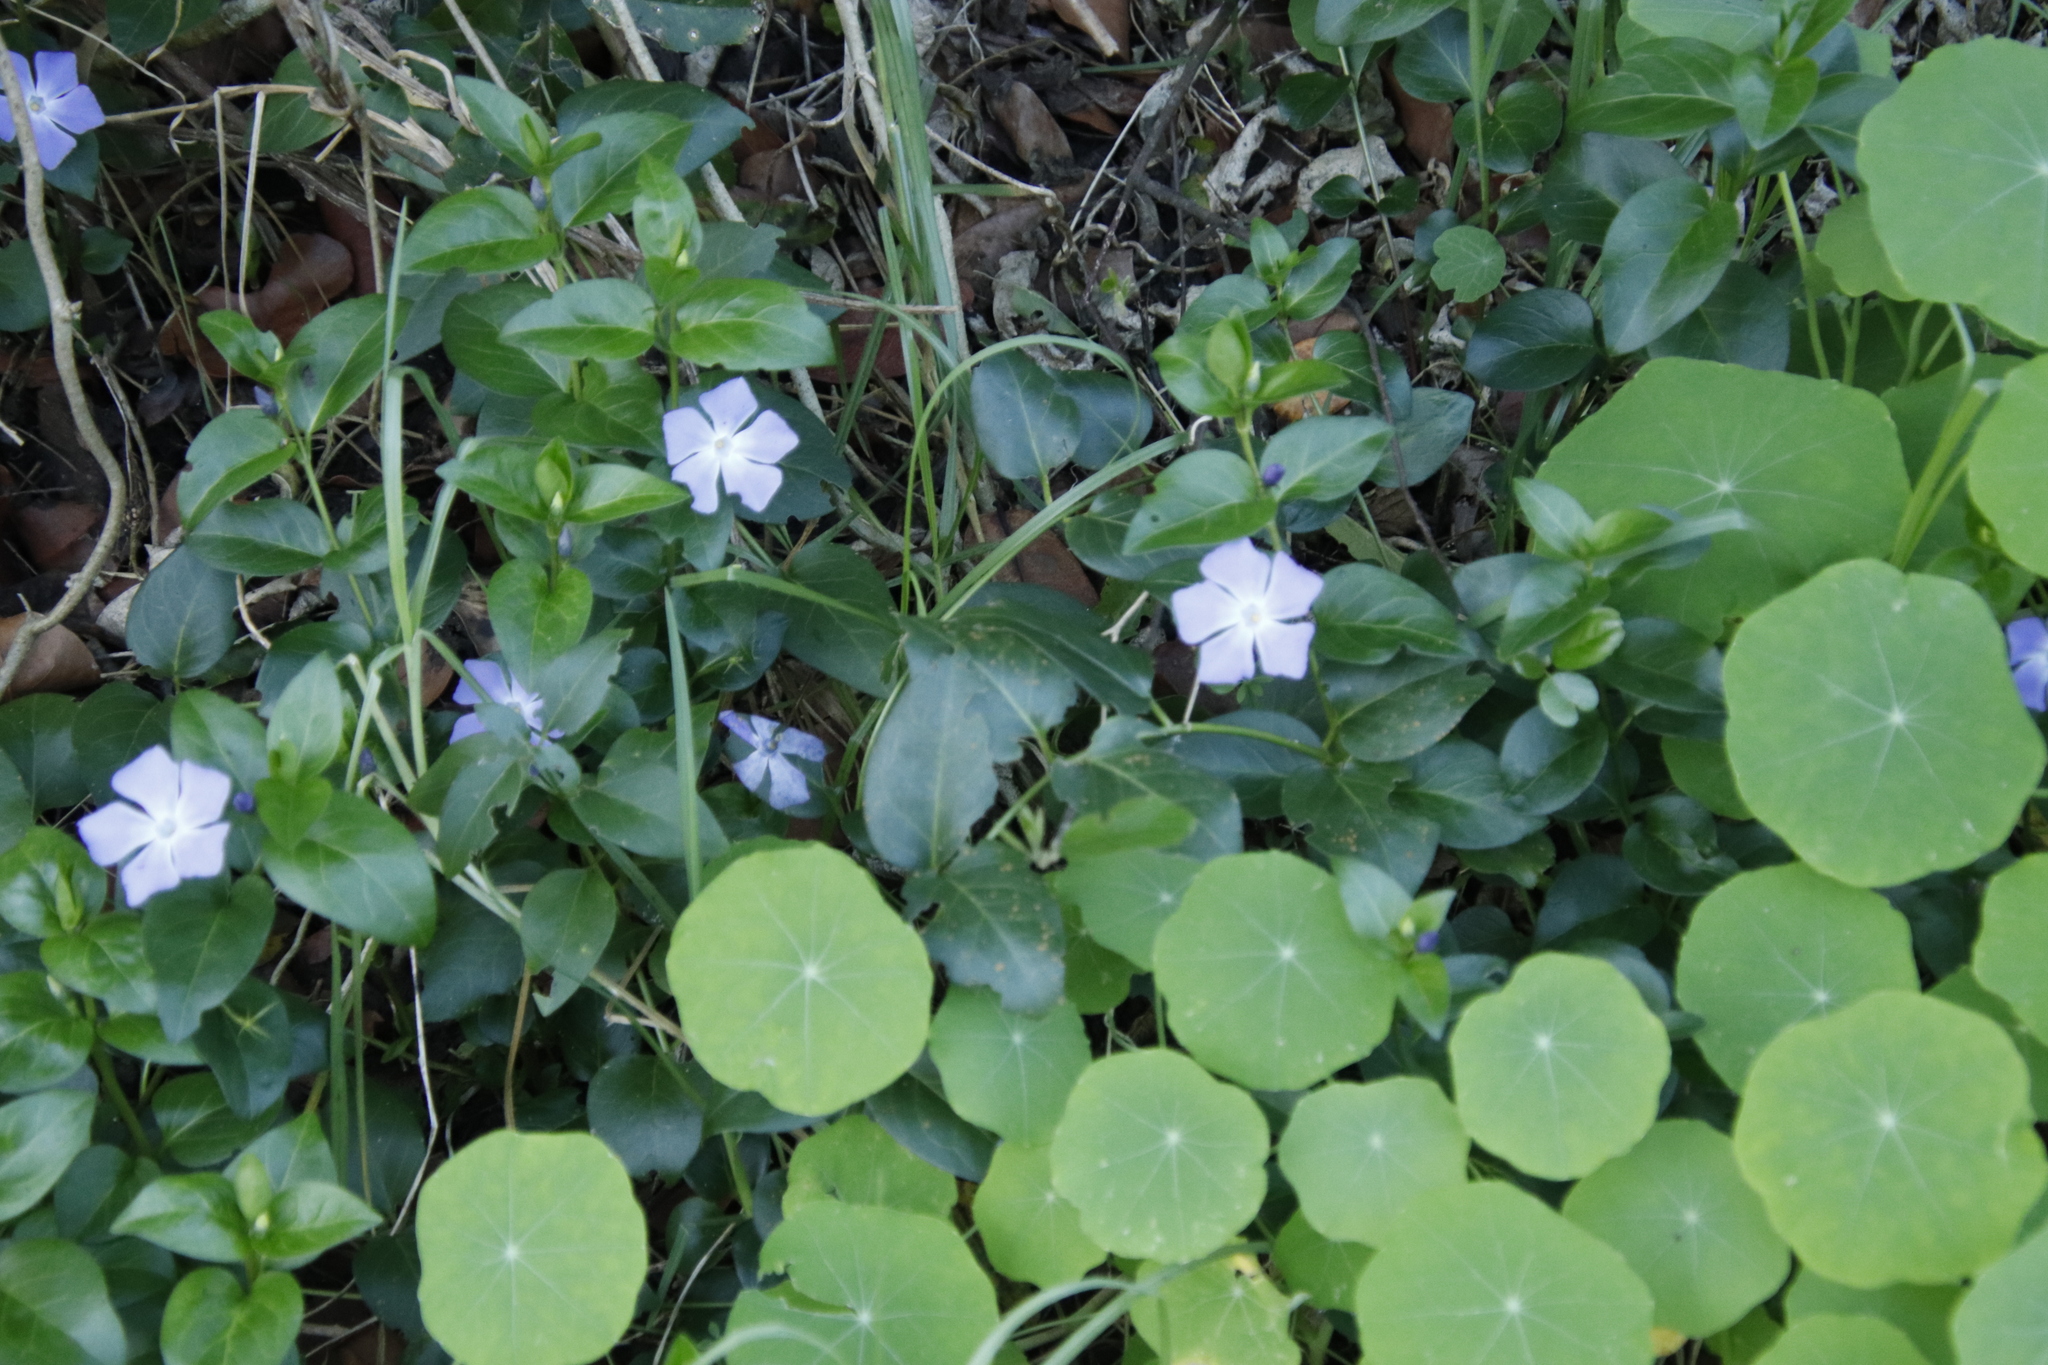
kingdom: Plantae
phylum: Tracheophyta
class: Magnoliopsida
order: Gentianales
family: Apocynaceae
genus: Vinca
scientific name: Vinca major
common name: Greater periwinkle
